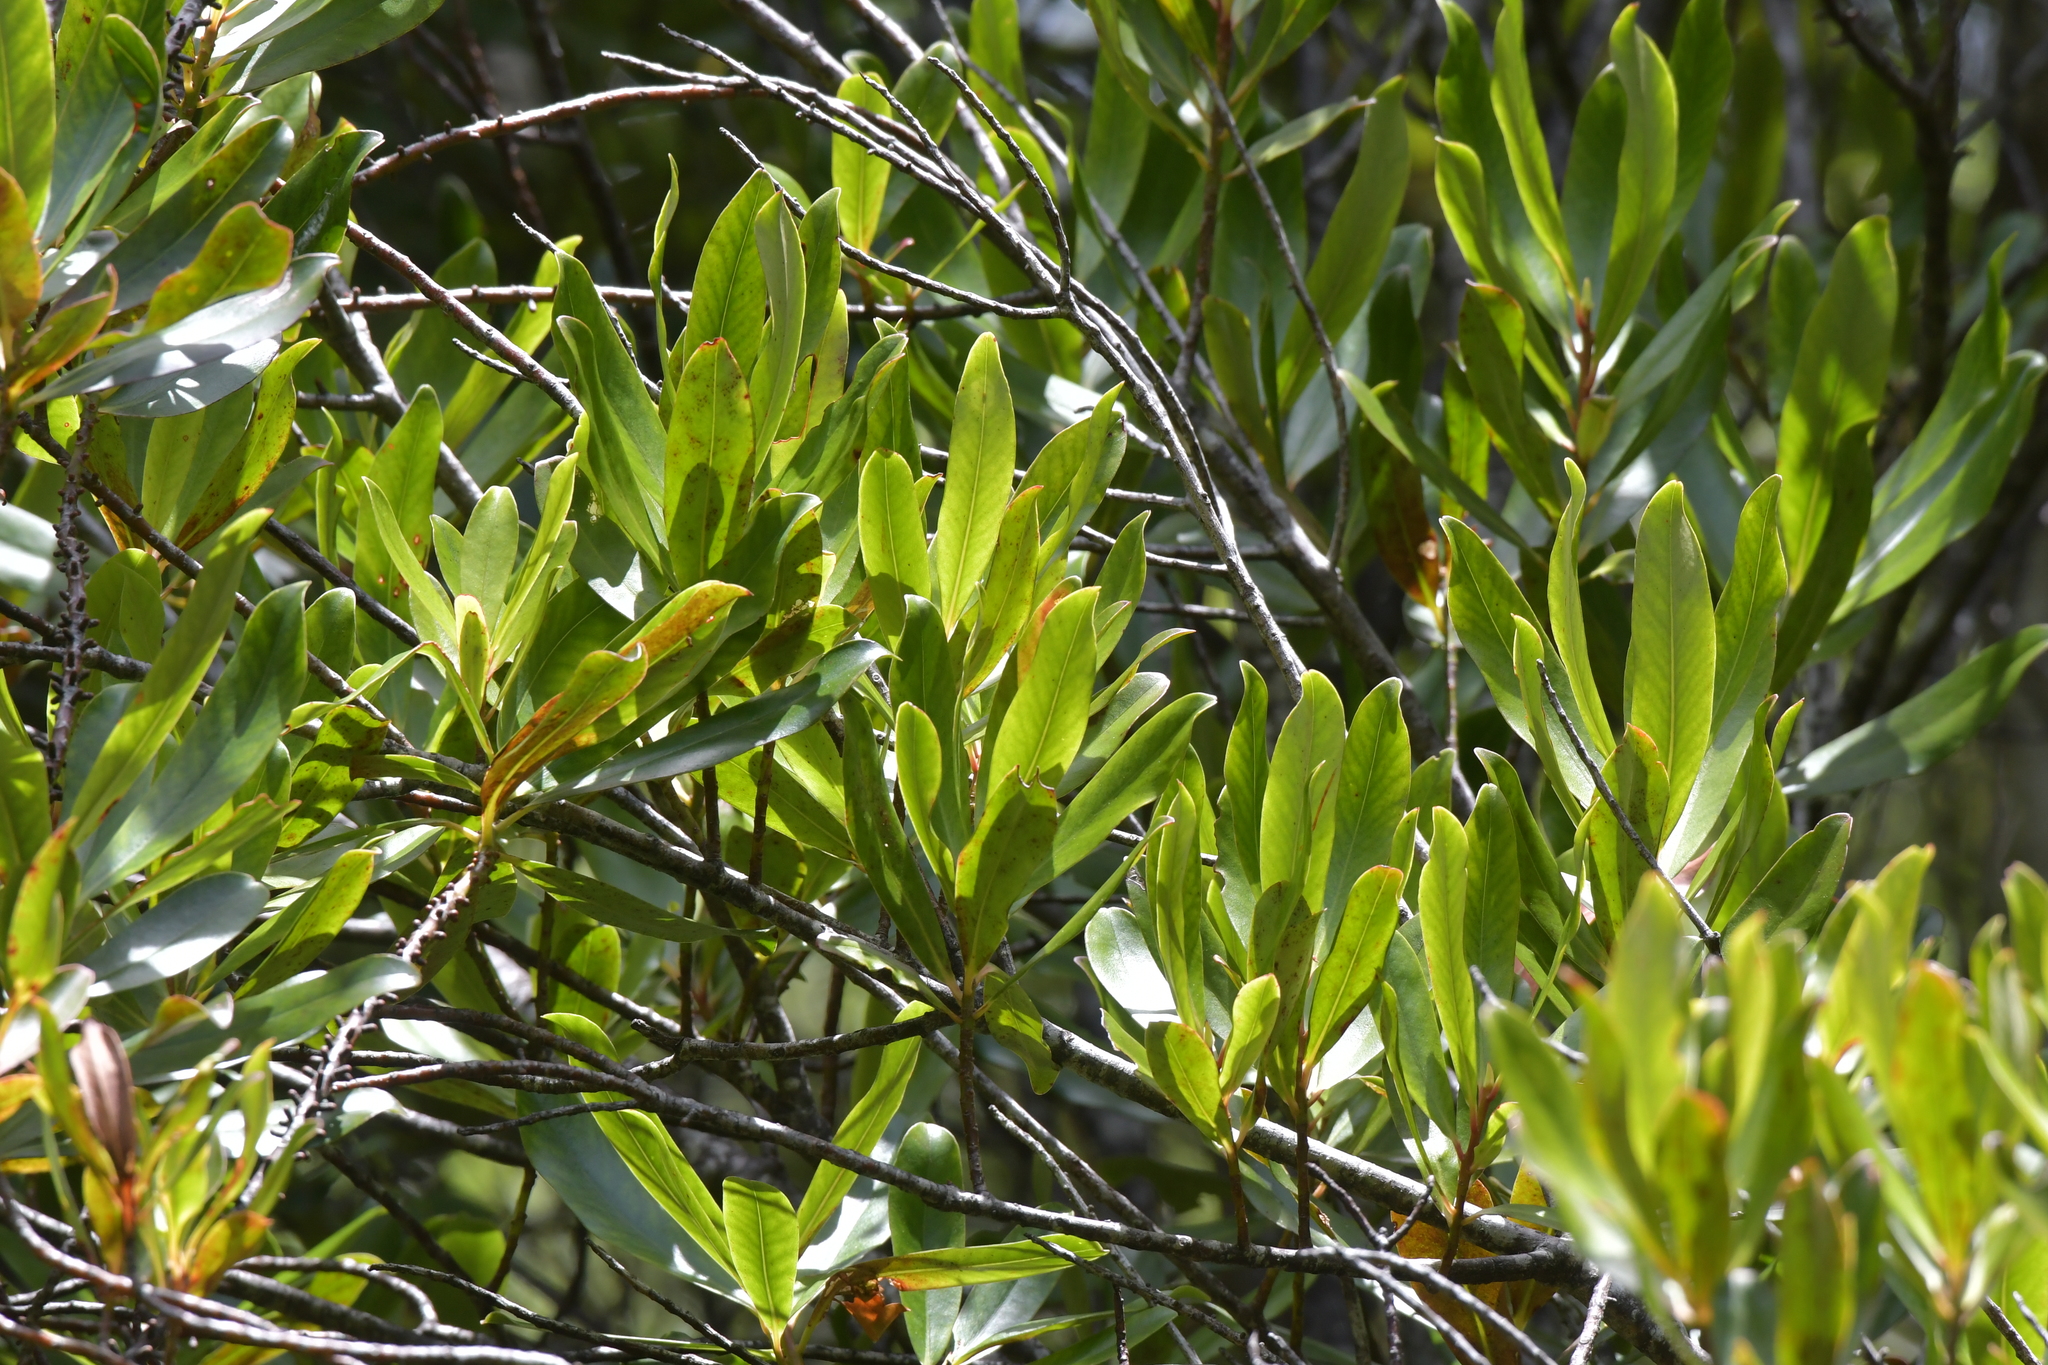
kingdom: Plantae
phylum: Tracheophyta
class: Magnoliopsida
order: Ericales
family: Primulaceae
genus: Myrsine
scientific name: Myrsine salicina
